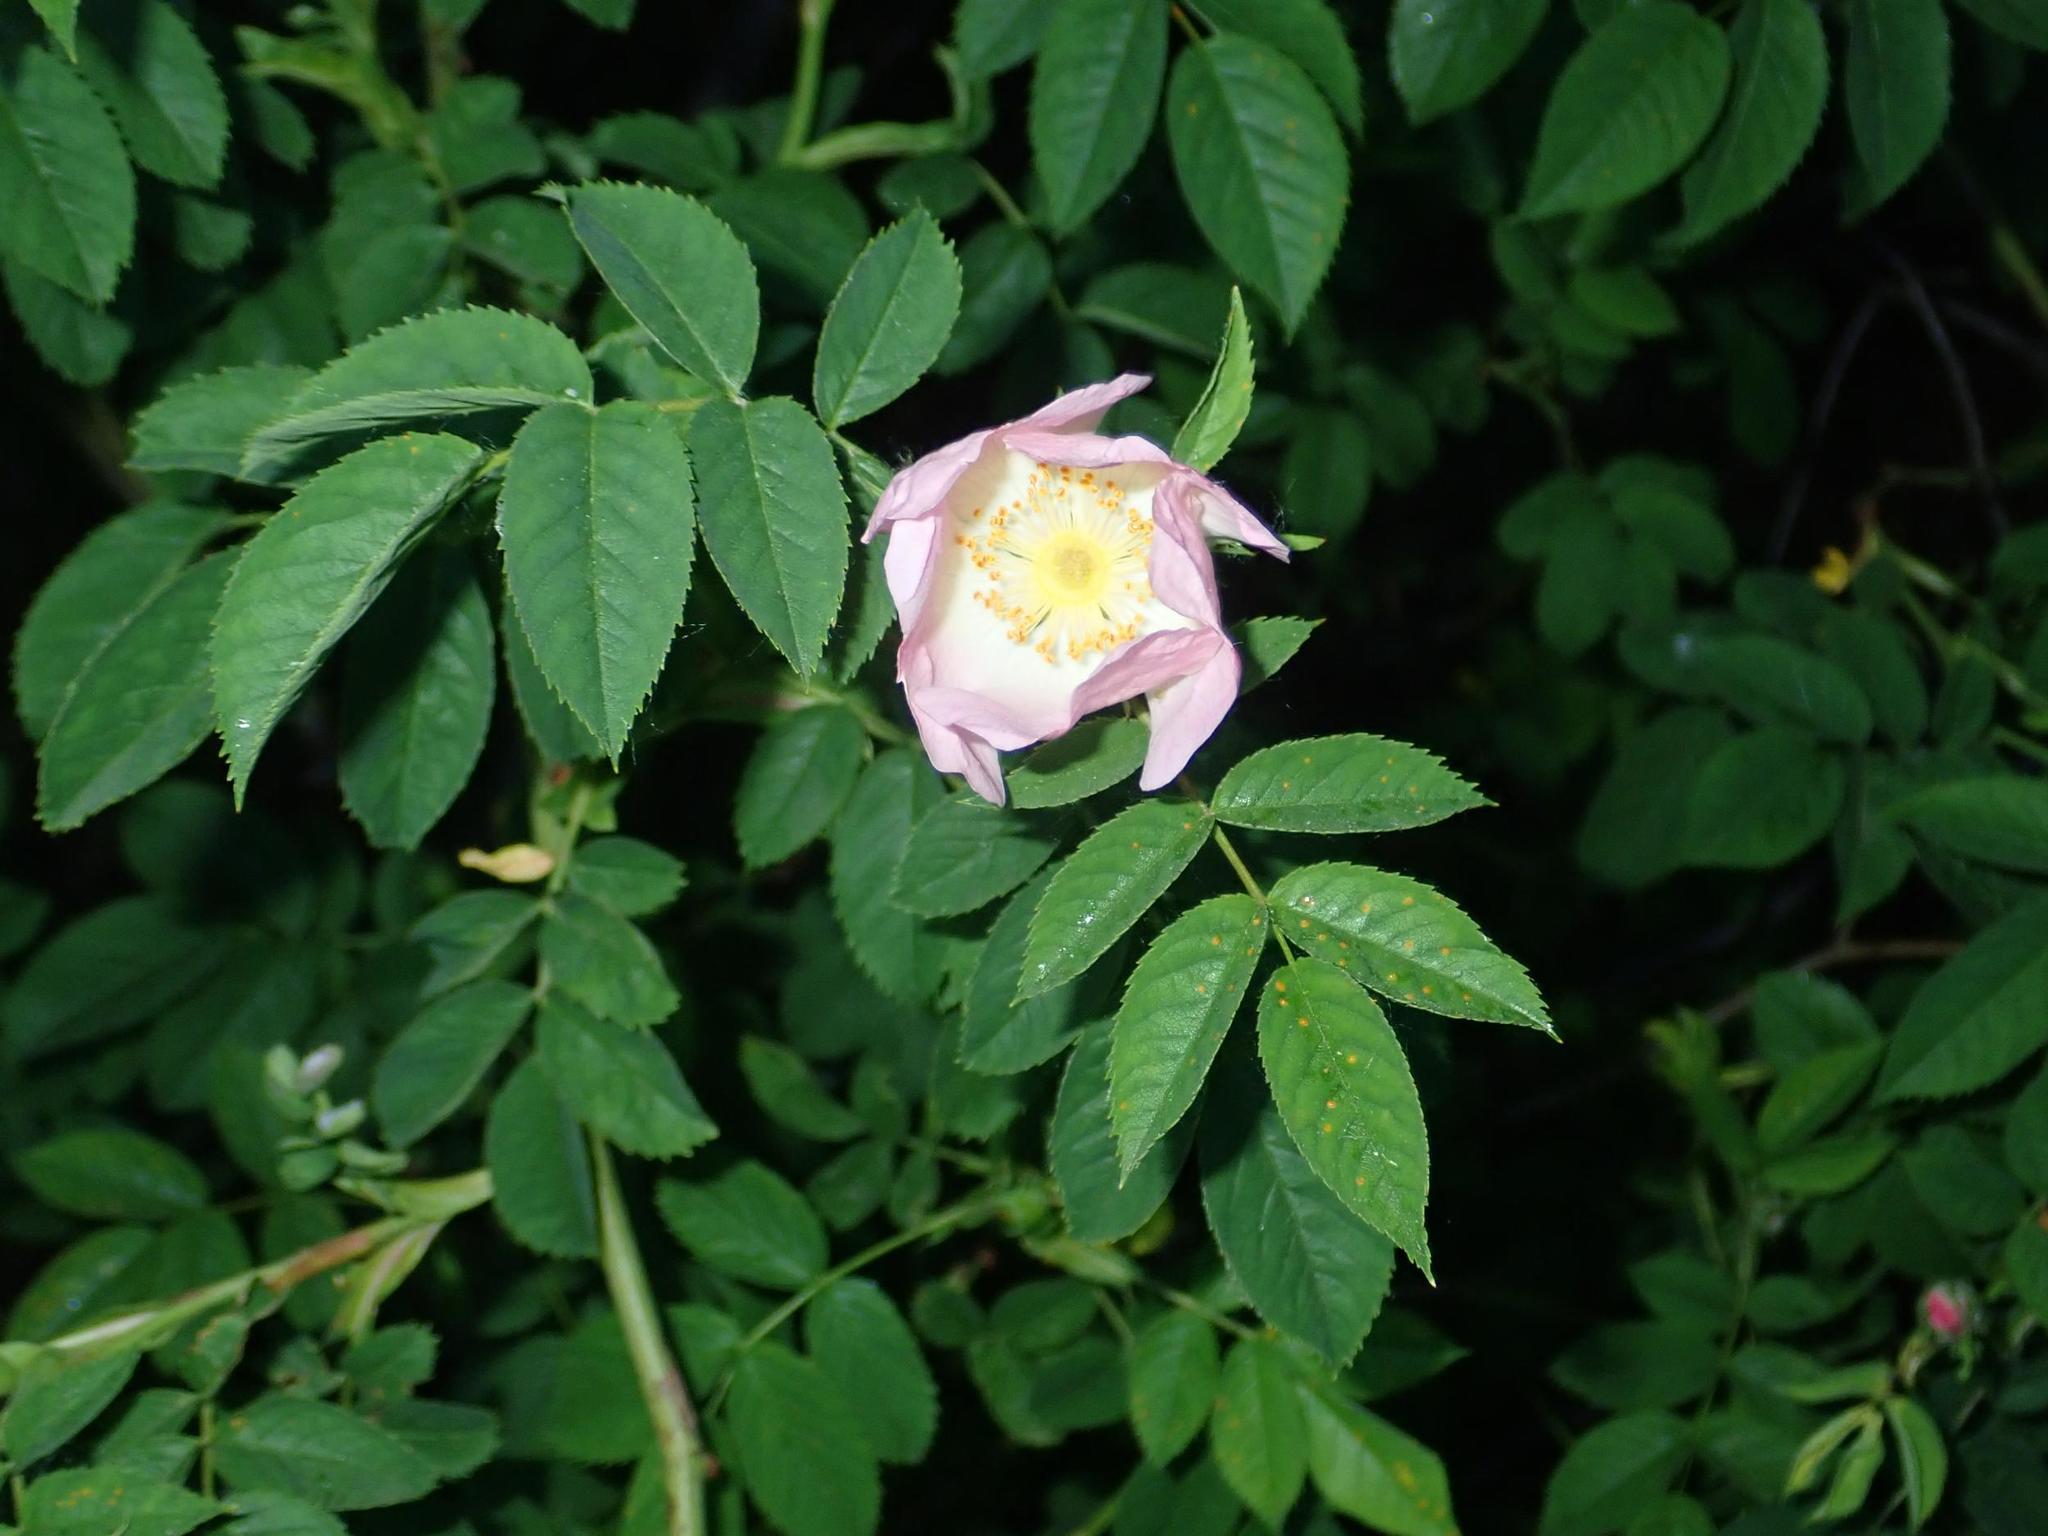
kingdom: Plantae
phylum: Tracheophyta
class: Magnoliopsida
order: Rosales
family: Rosaceae
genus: Rosa
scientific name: Rosa canina
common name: Dog rose
